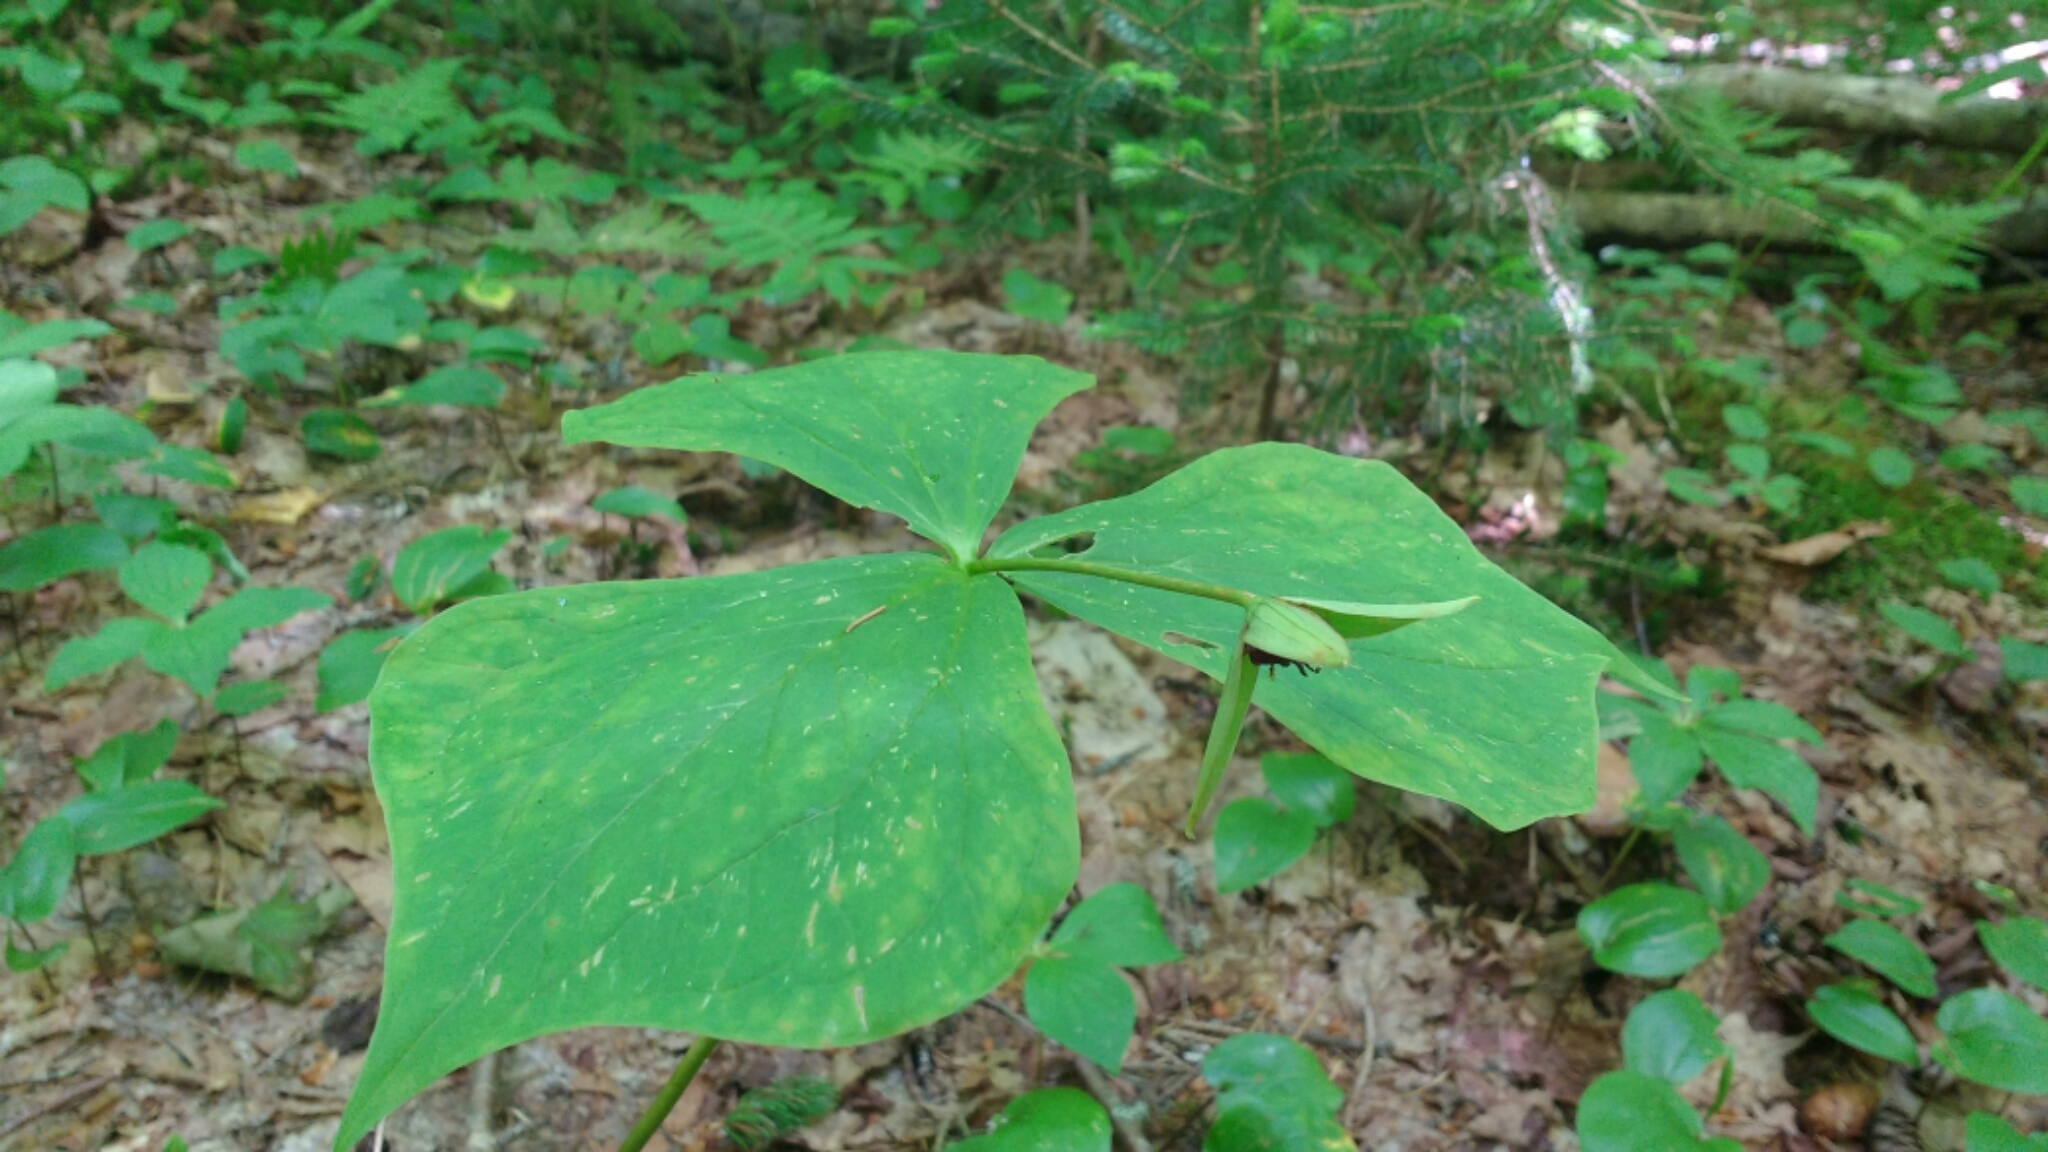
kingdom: Plantae
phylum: Tracheophyta
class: Liliopsida
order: Liliales
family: Melanthiaceae
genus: Trillium
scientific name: Trillium erectum
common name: Purple trillium
